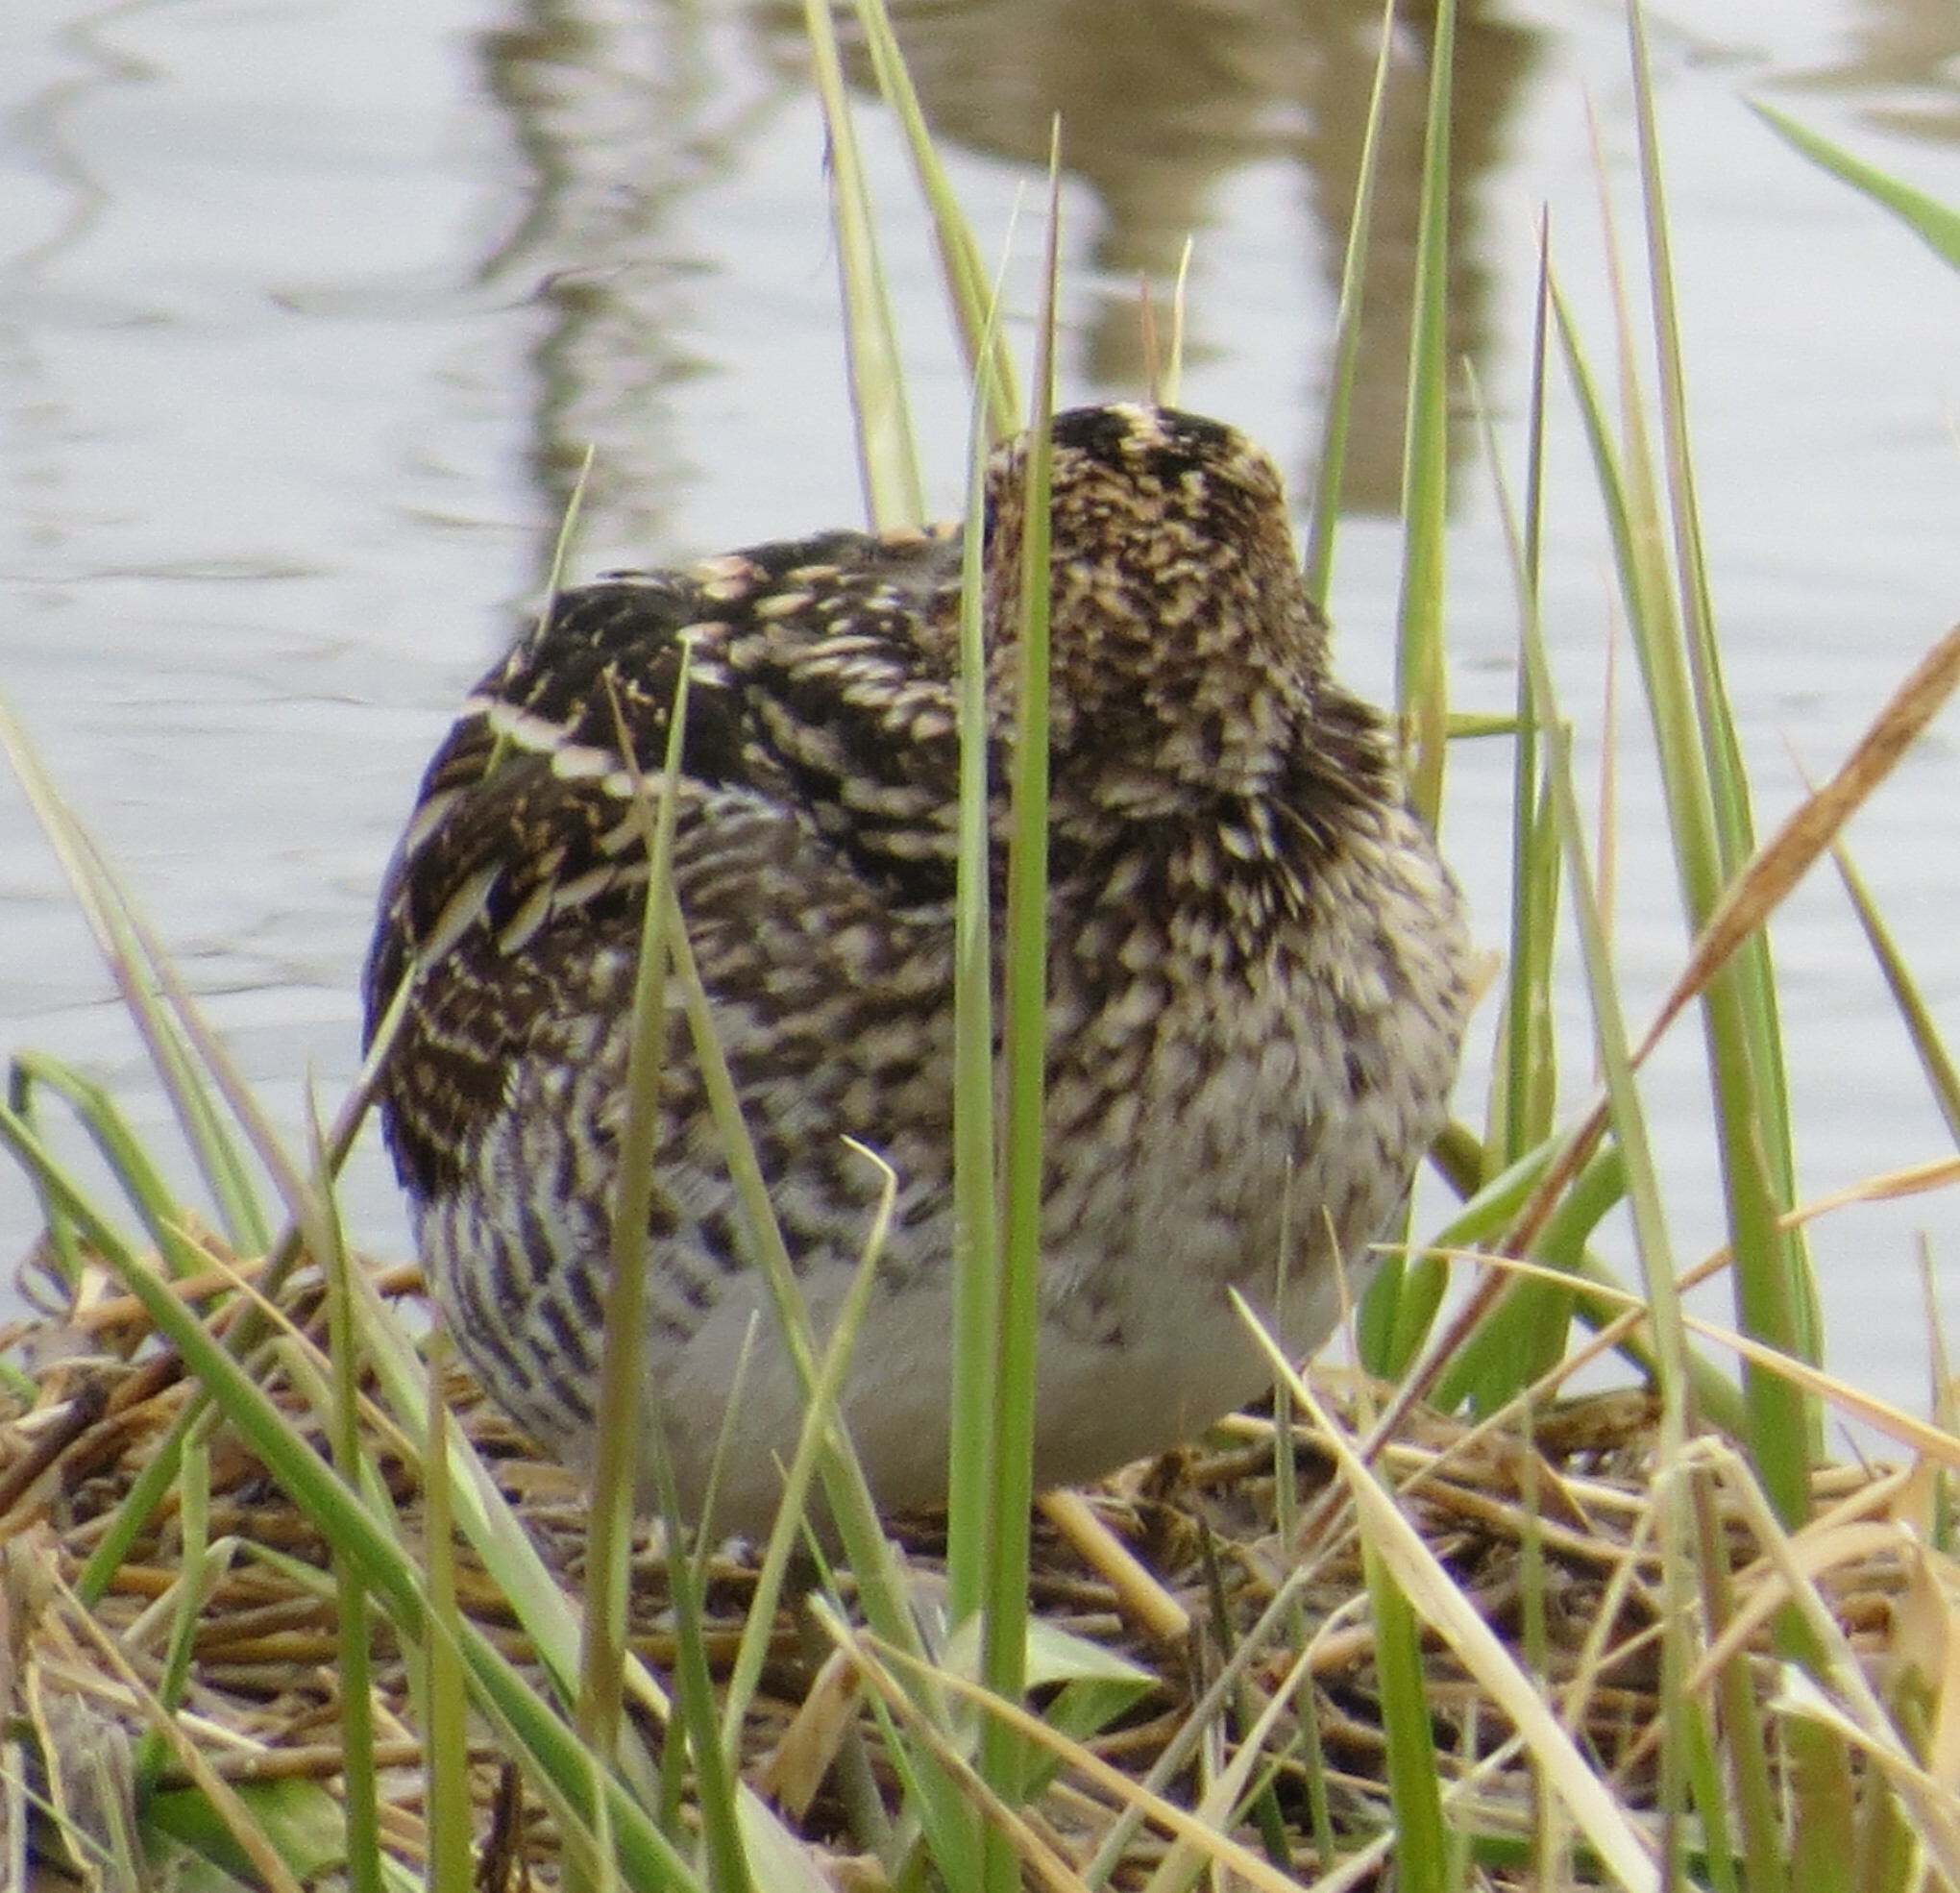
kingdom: Animalia
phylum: Chordata
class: Aves
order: Charadriiformes
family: Scolopacidae
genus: Gallinago
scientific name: Gallinago delicata
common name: Wilson's snipe
